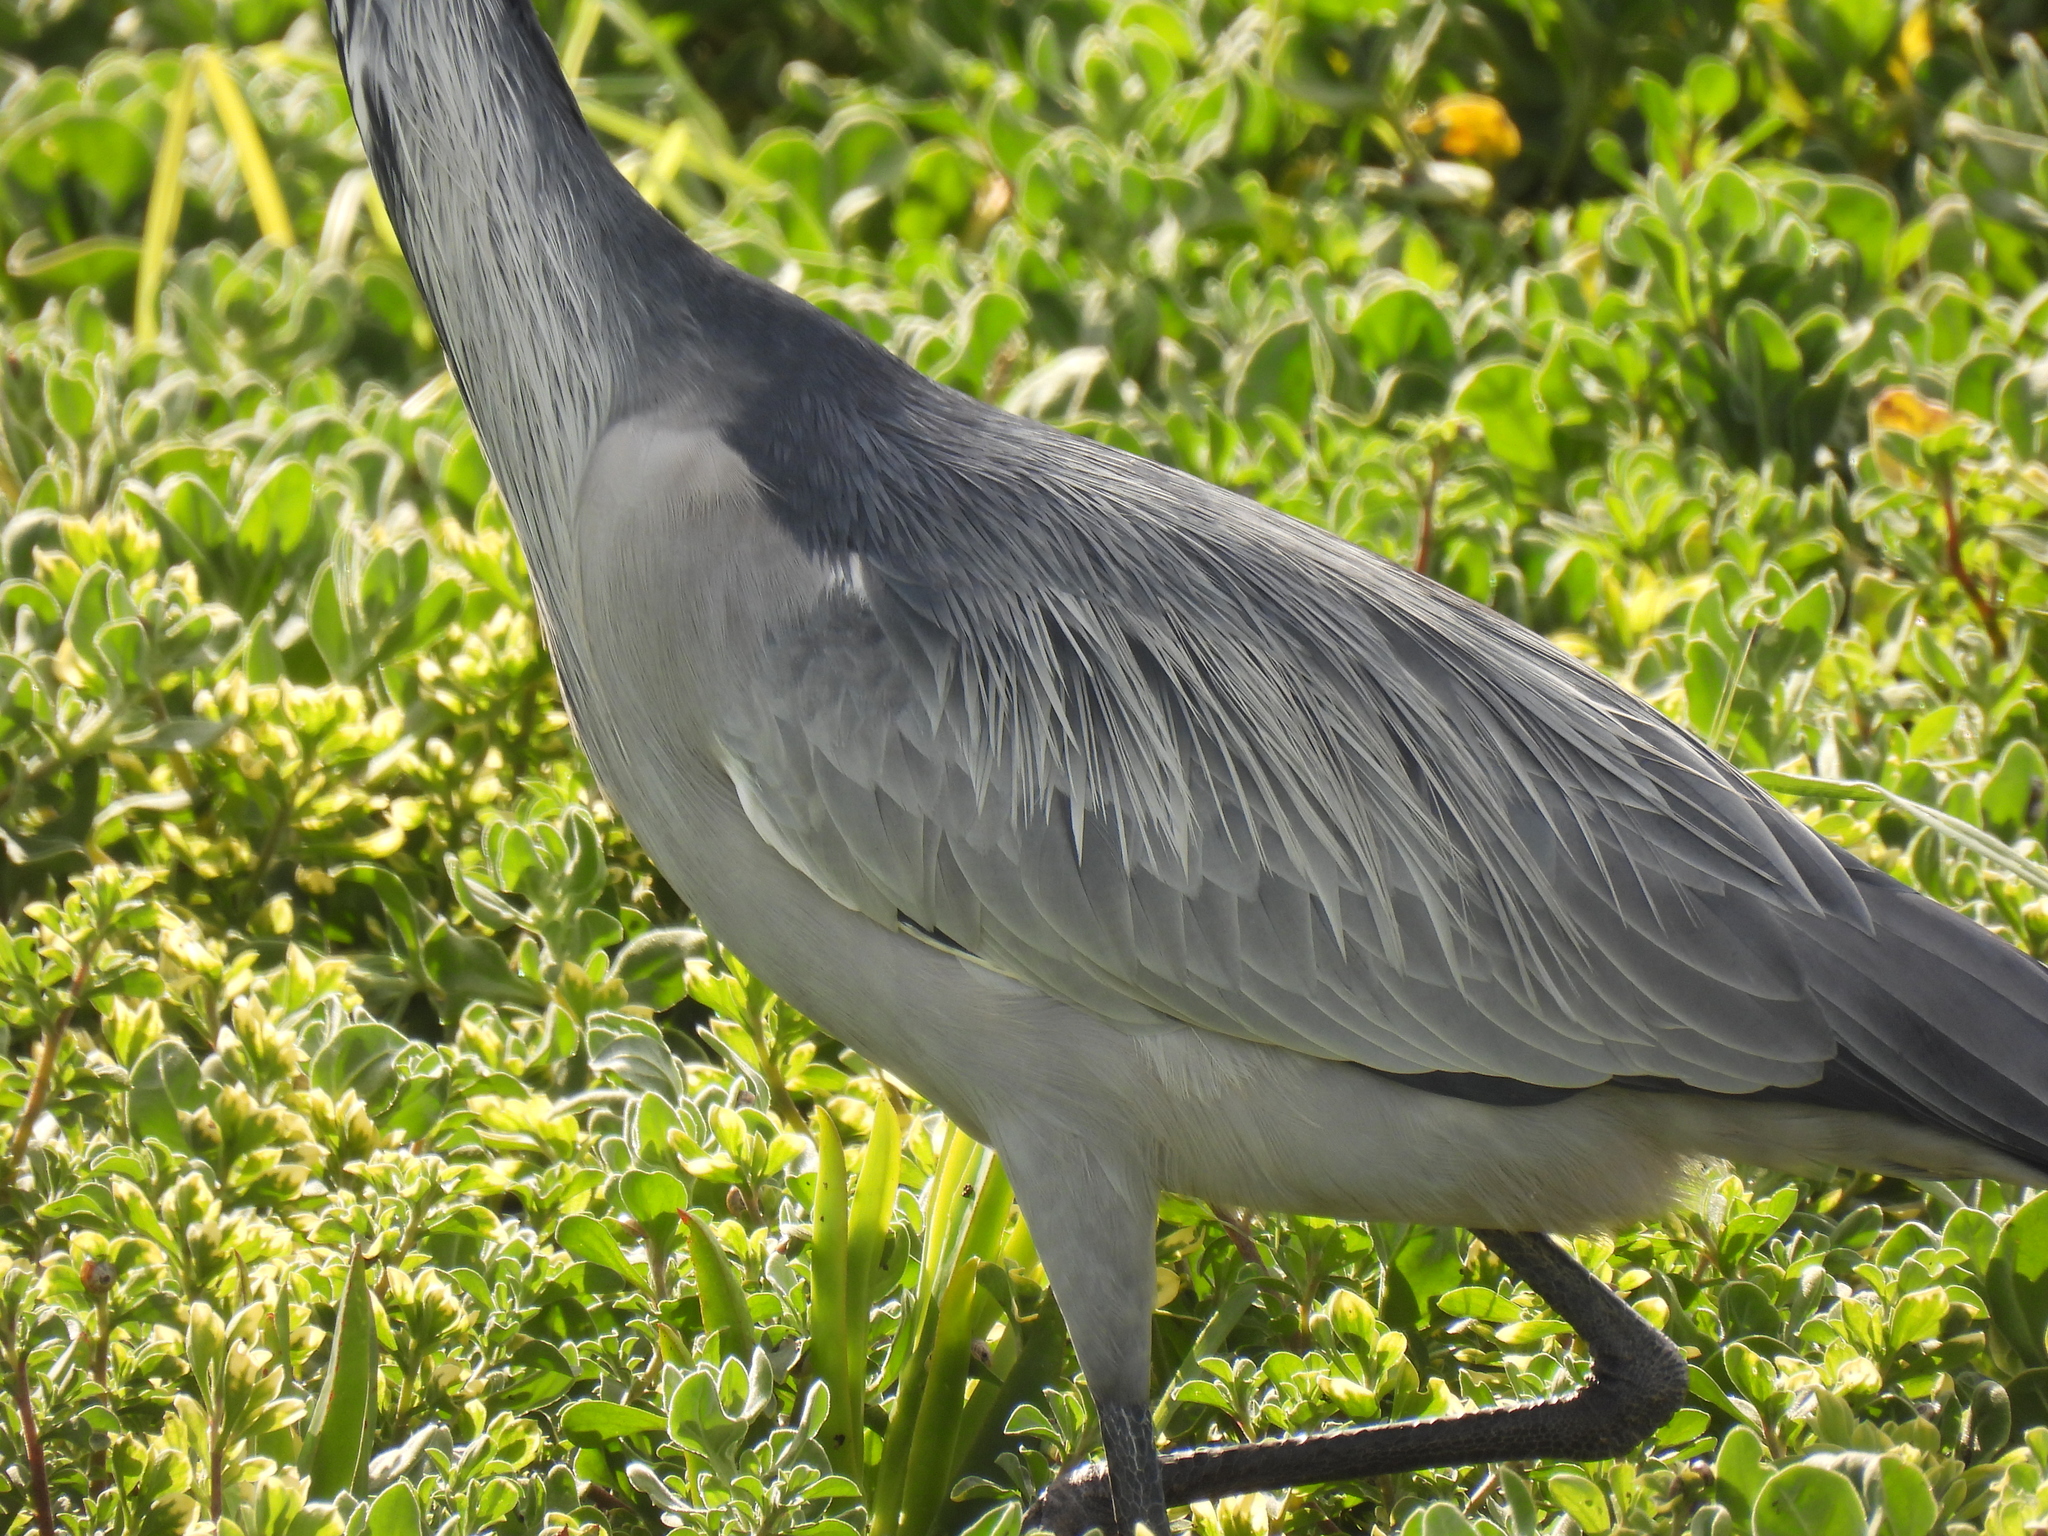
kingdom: Animalia
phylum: Chordata
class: Aves
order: Pelecaniformes
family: Ardeidae
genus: Ardea
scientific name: Ardea melanocephala
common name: Black-headed heron
